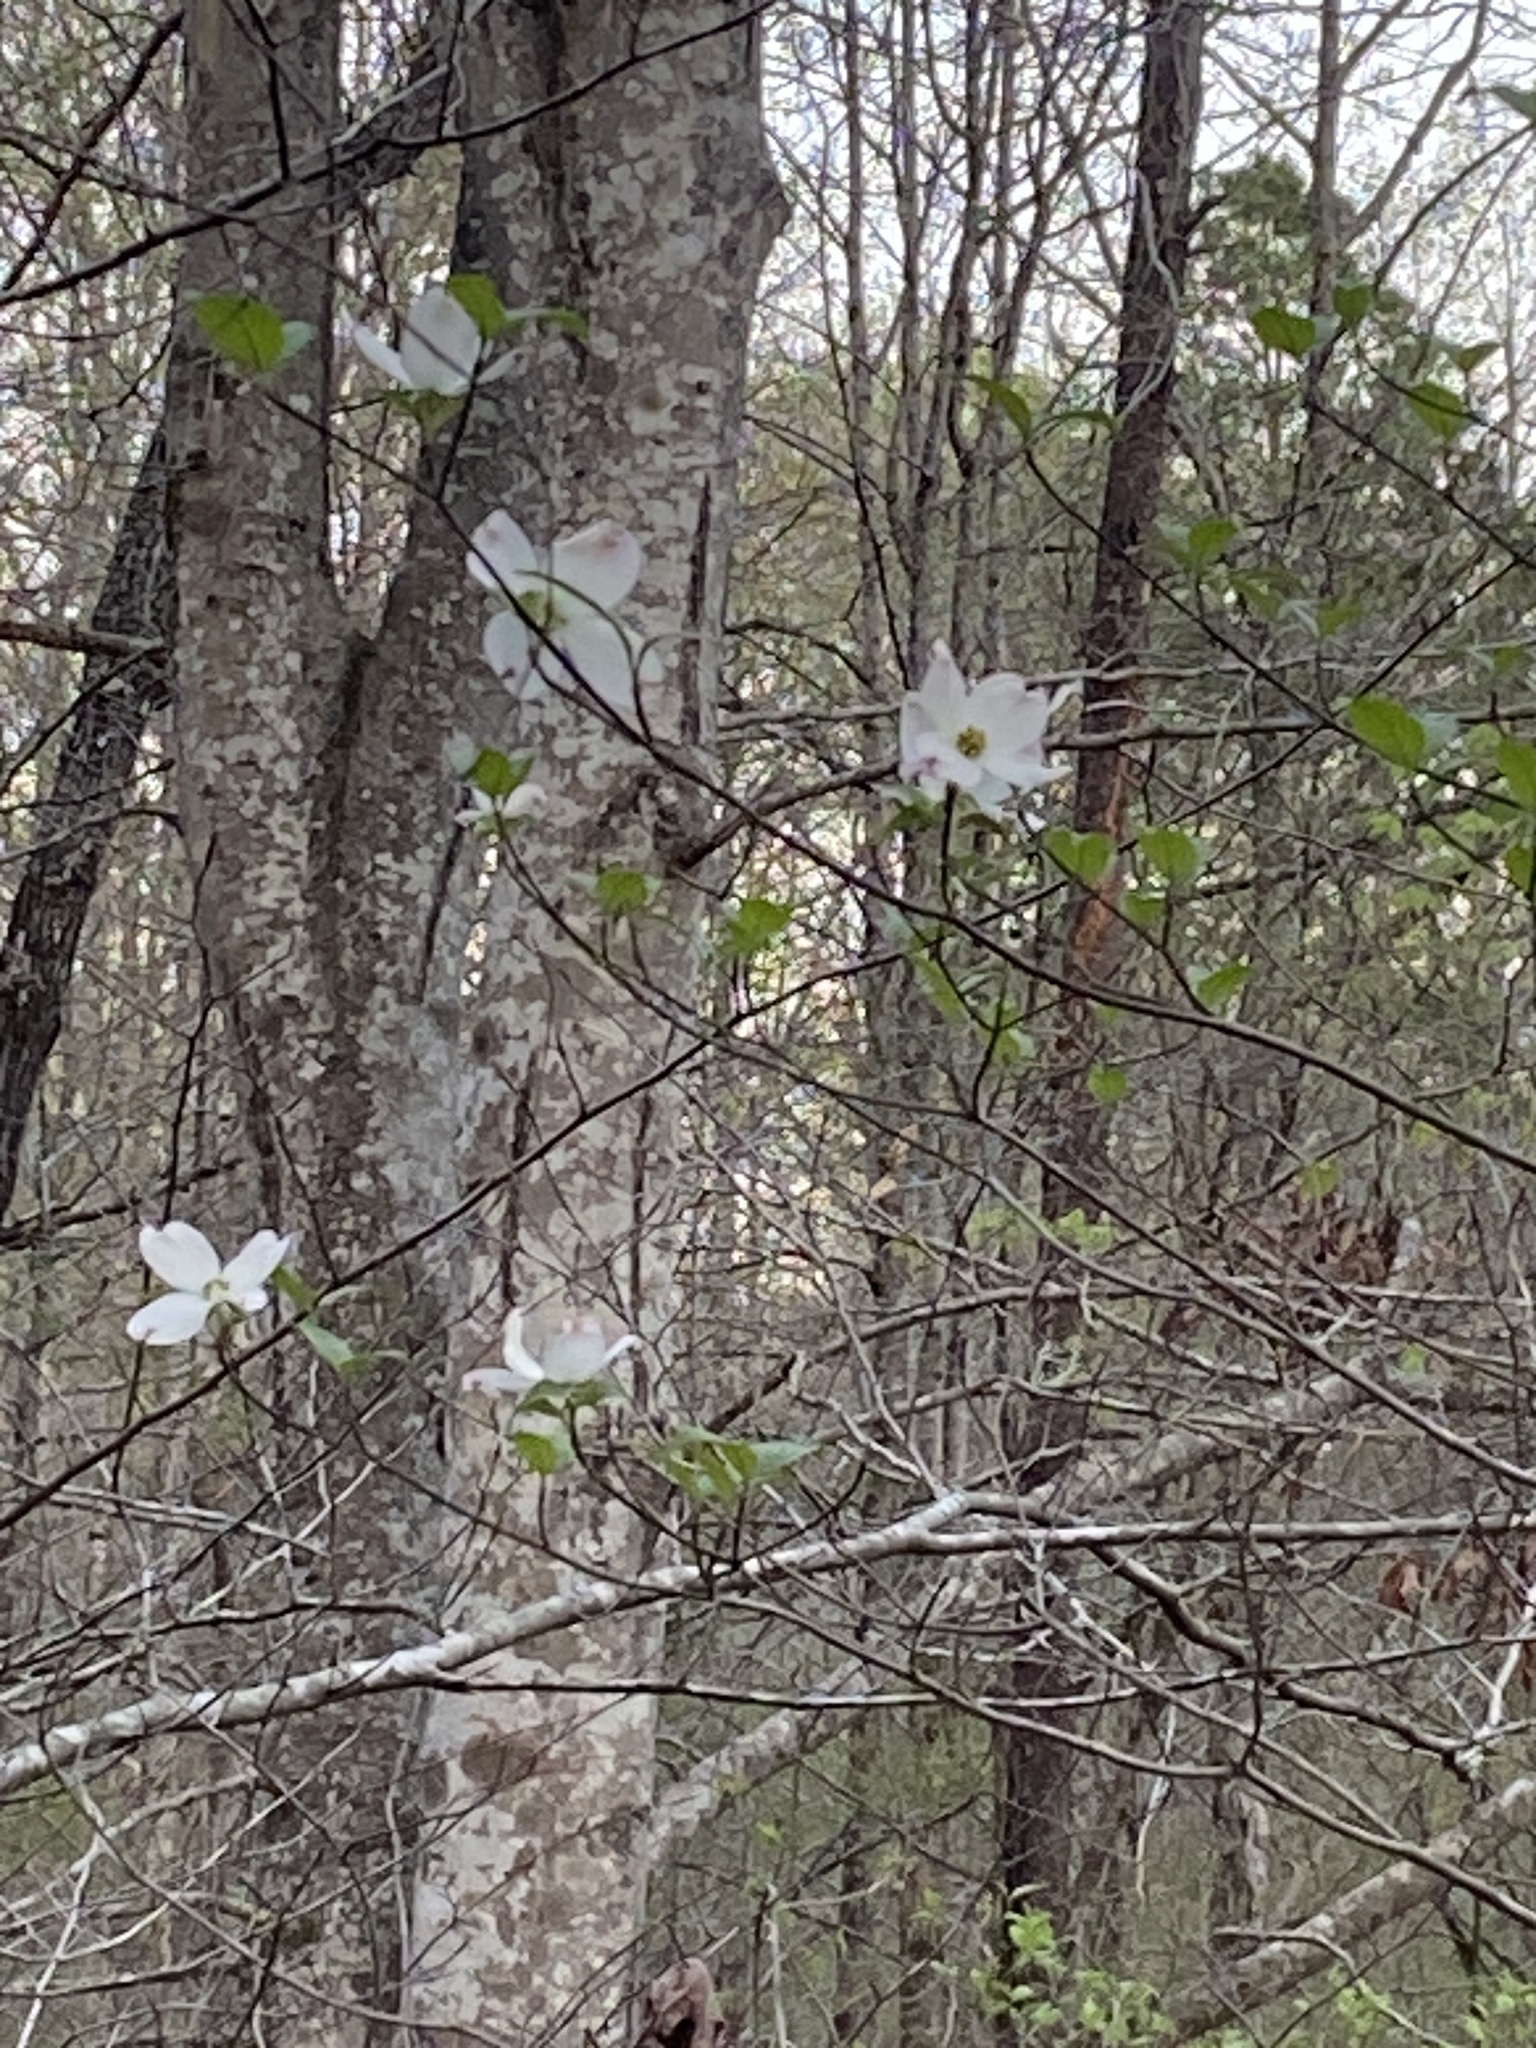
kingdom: Plantae
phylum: Tracheophyta
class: Magnoliopsida
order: Cornales
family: Cornaceae
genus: Cornus
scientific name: Cornus florida
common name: Flowering dogwood
